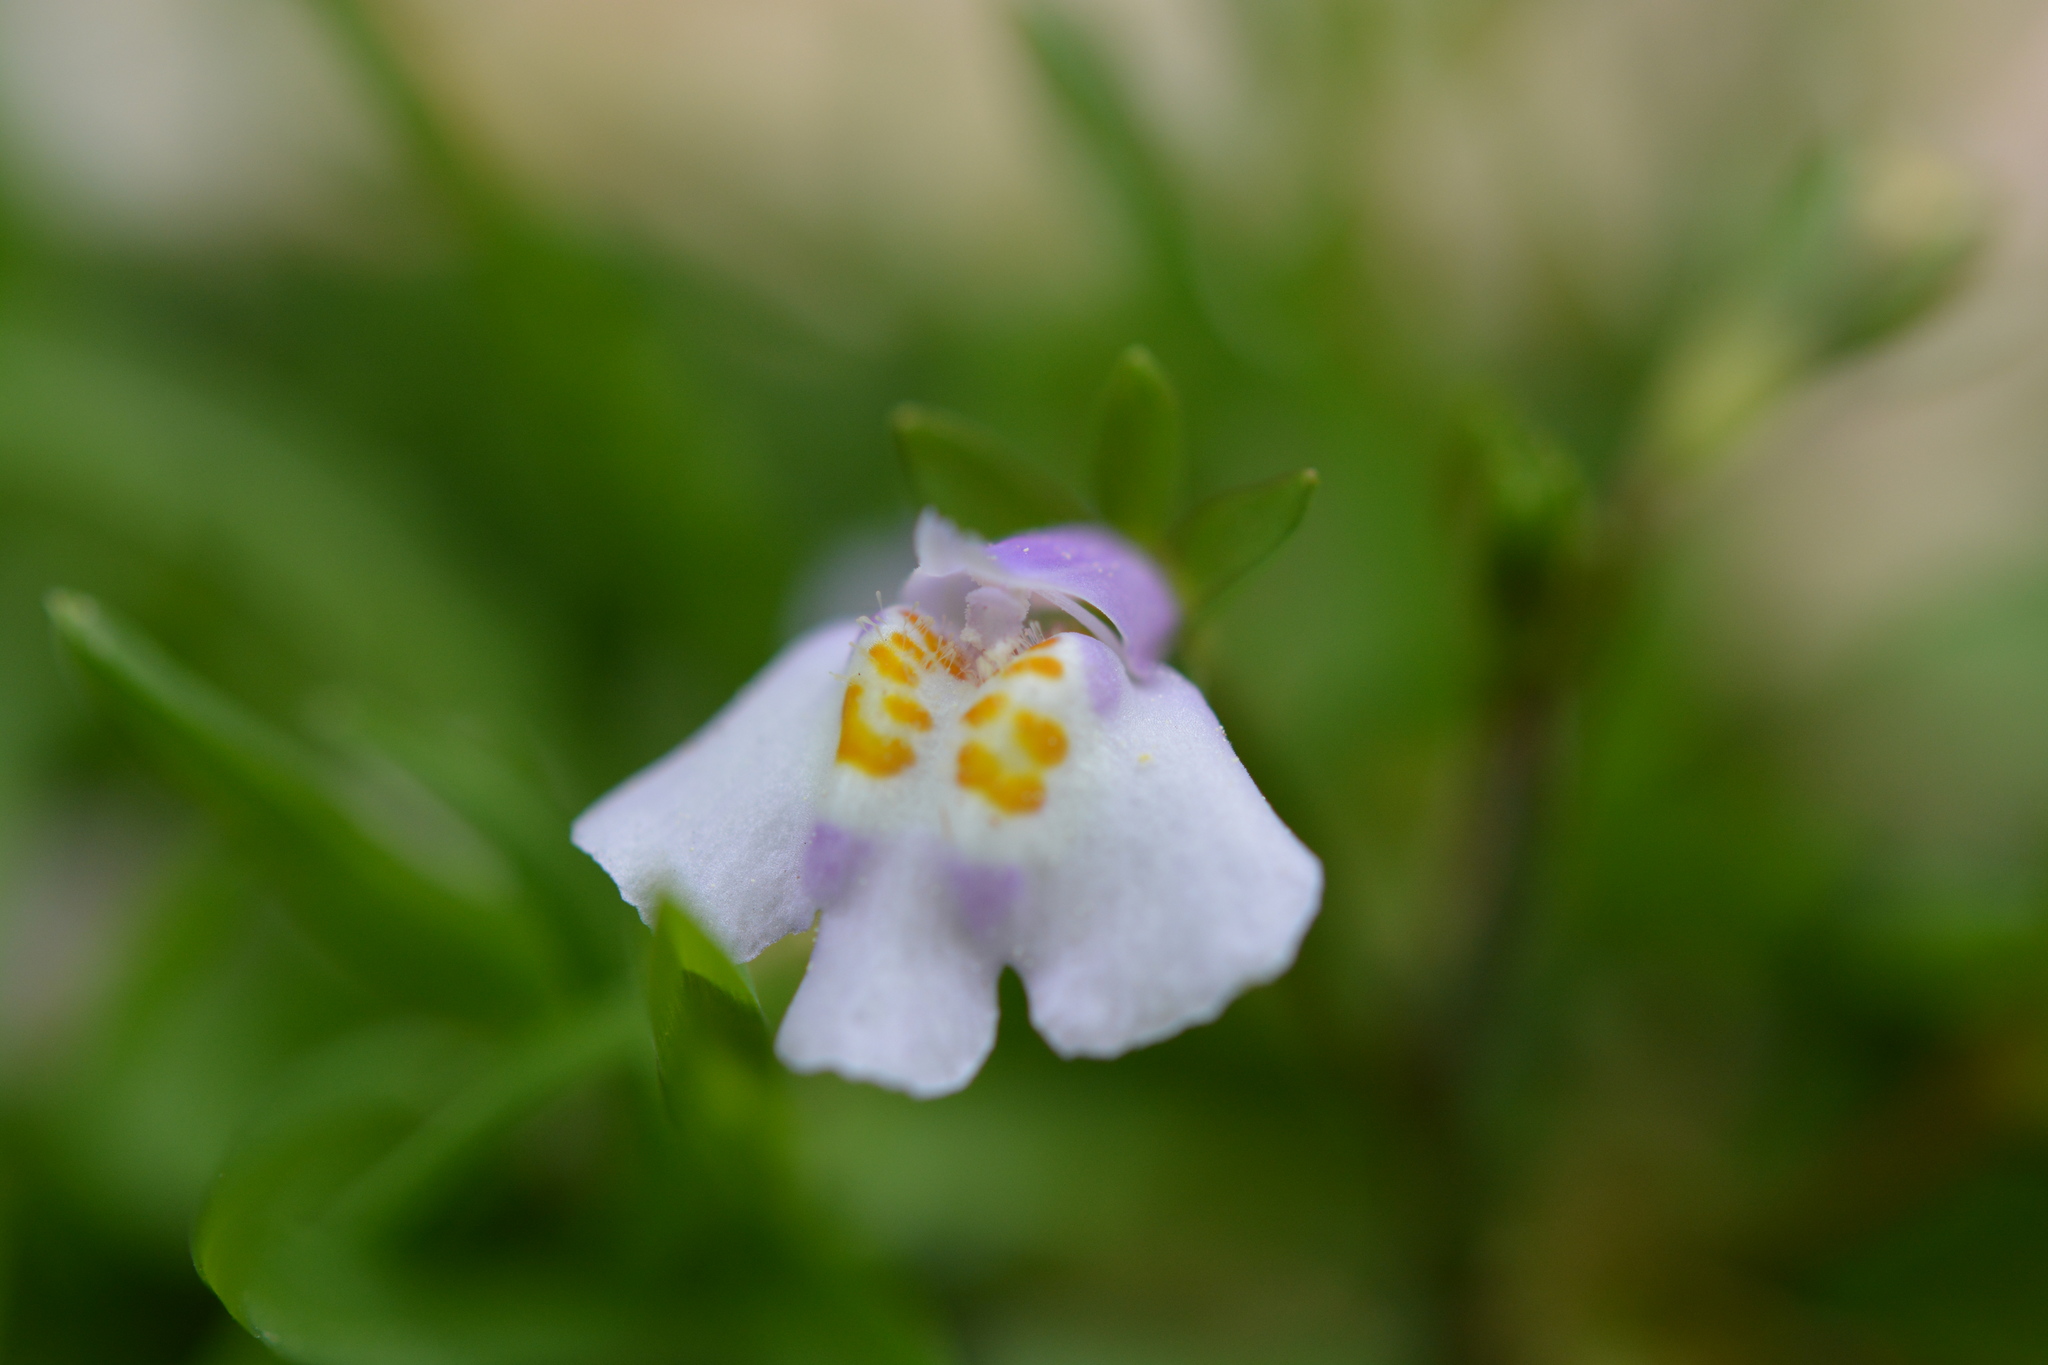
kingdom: Plantae
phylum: Tracheophyta
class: Magnoliopsida
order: Lamiales
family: Mazaceae
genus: Mazus
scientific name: Mazus pumilus
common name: Japanese mazus
